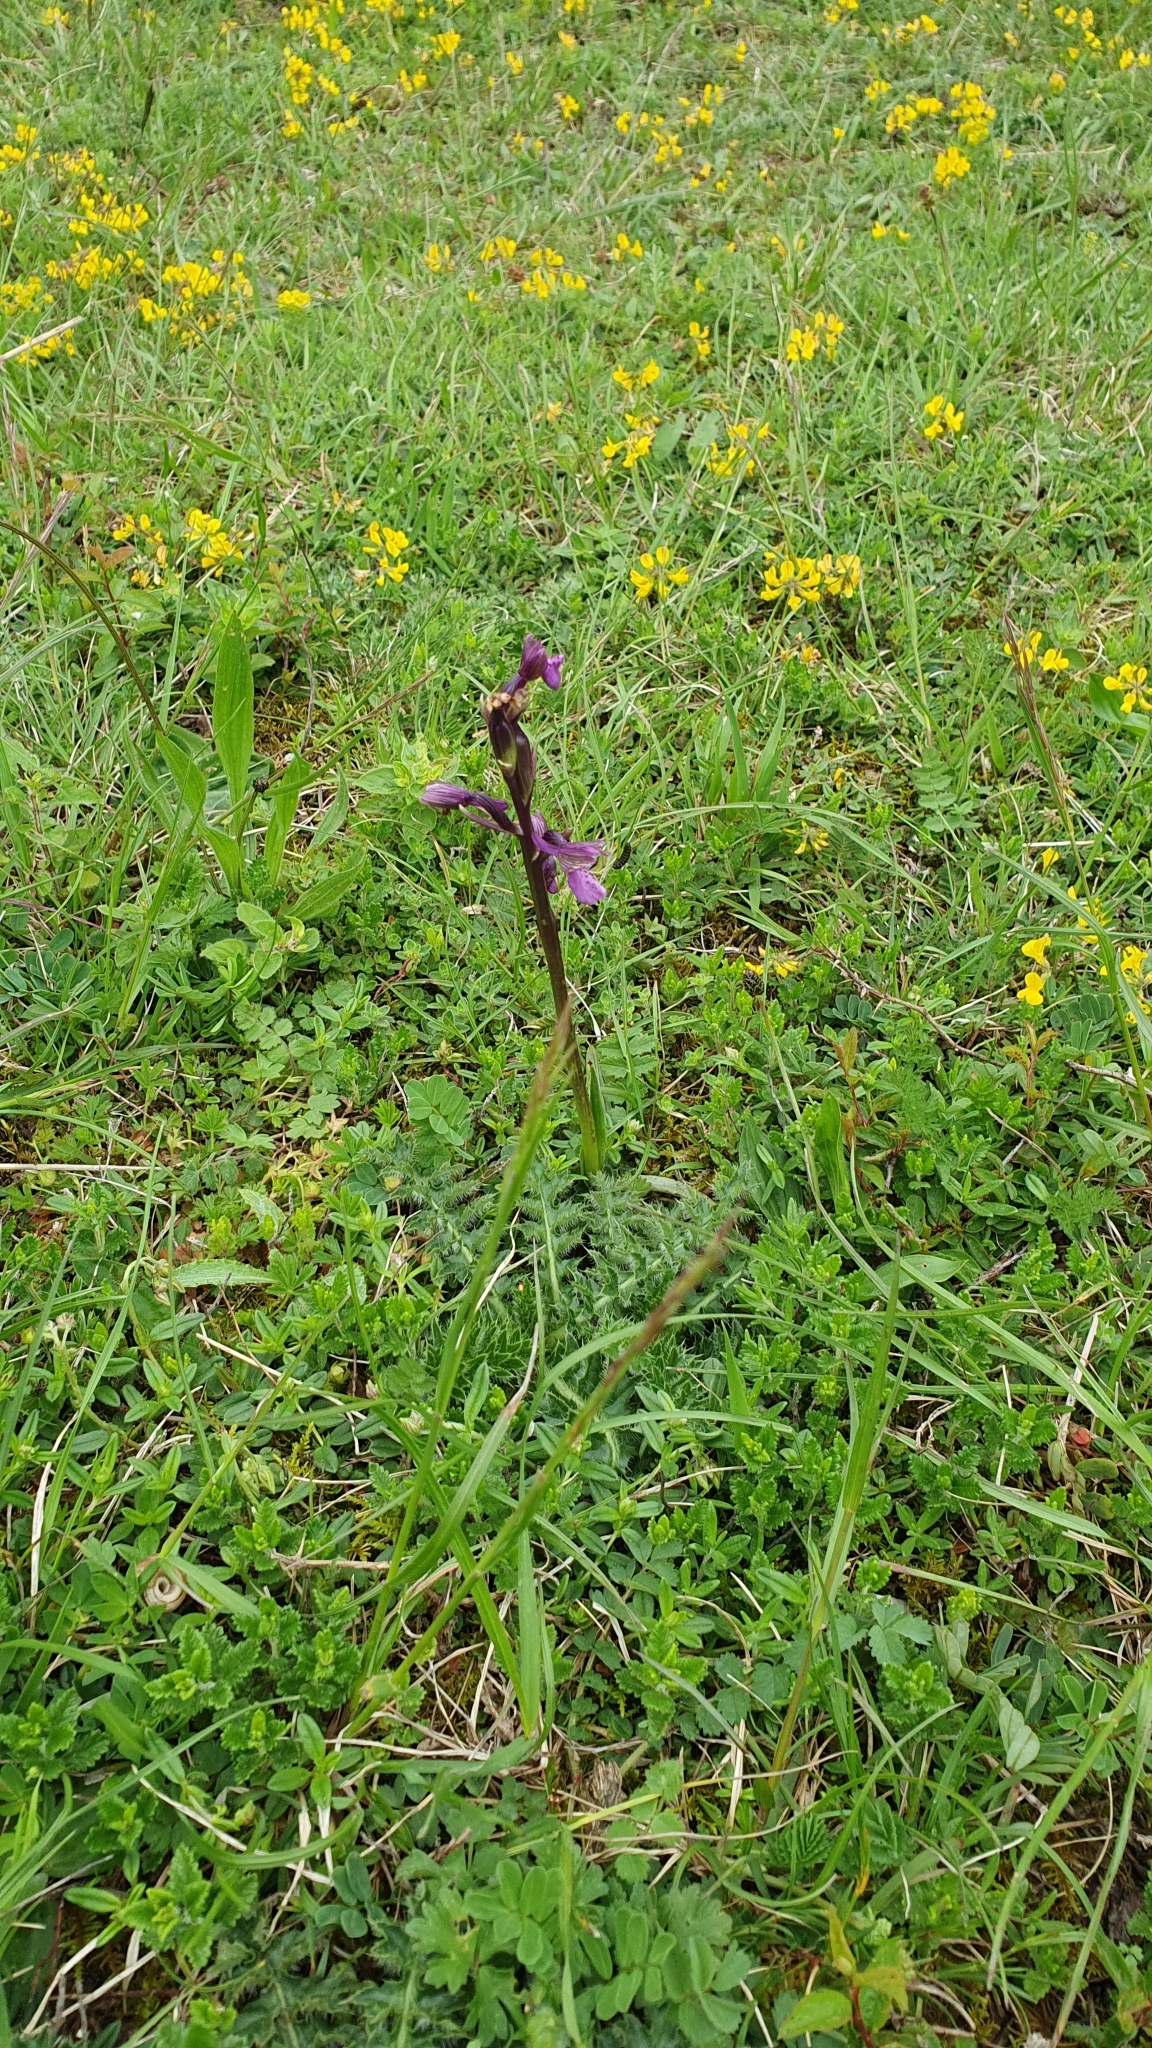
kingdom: Plantae
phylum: Tracheophyta
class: Liliopsida
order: Asparagales
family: Orchidaceae
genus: Anacamptis
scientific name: Anacamptis morio
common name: Green-winged orchid
